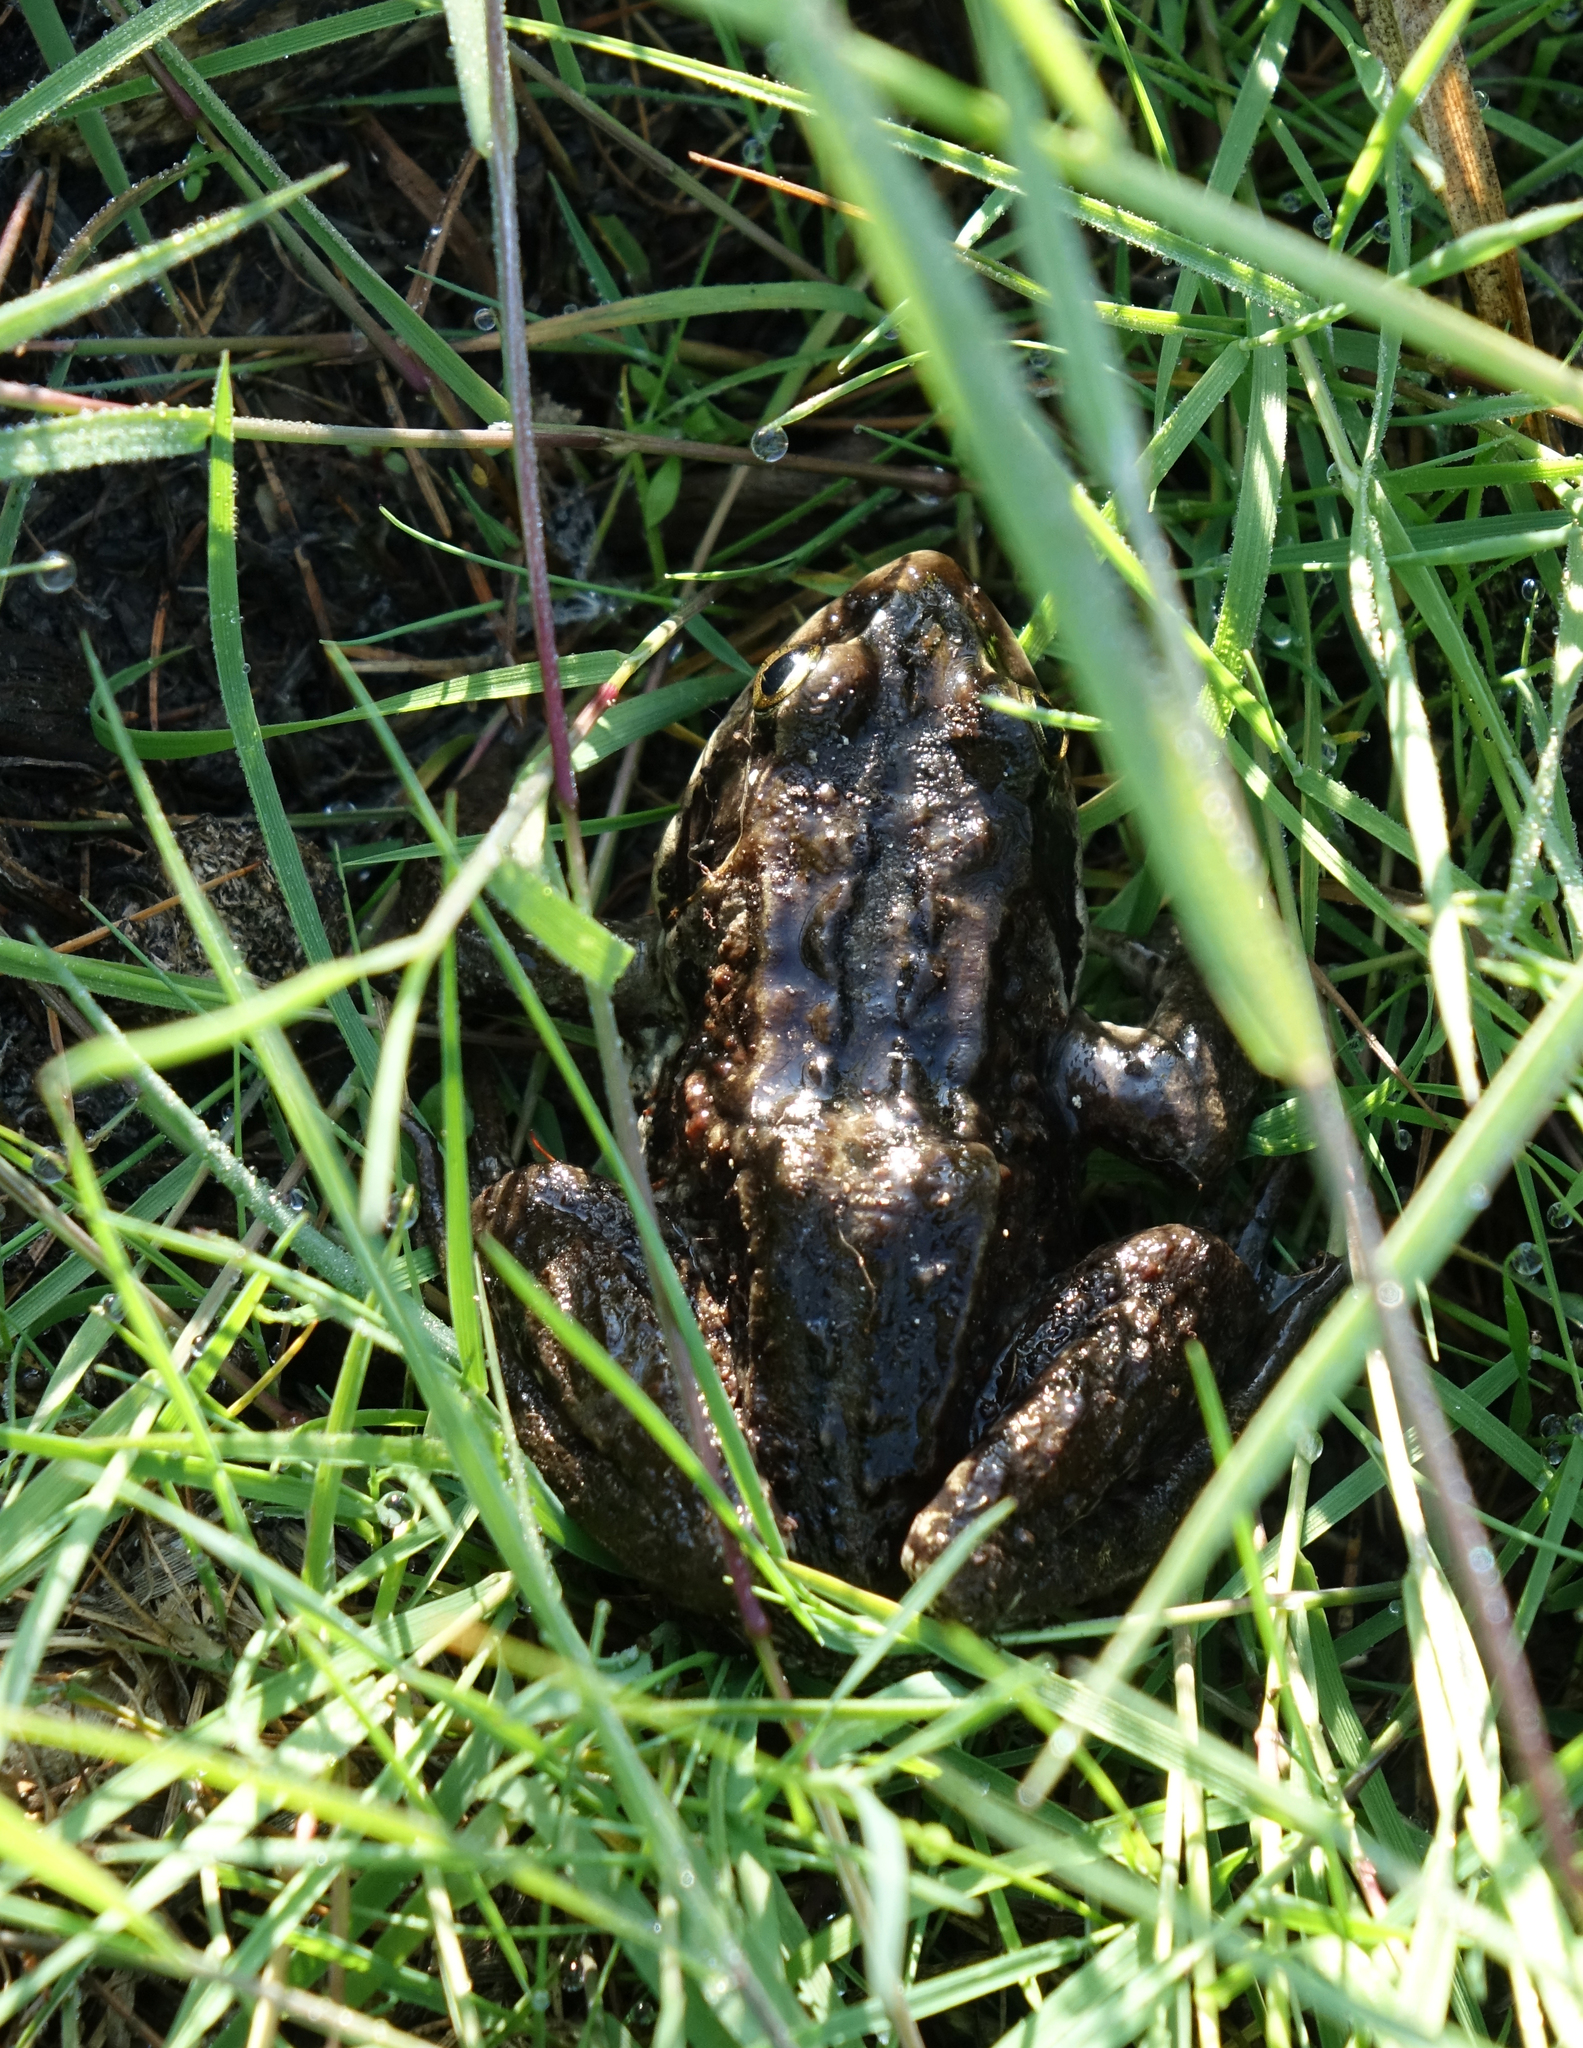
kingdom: Animalia
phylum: Chordata
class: Amphibia
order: Anura
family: Ranidae
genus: Rana
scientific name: Rana amurensis
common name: Amur brown frog
